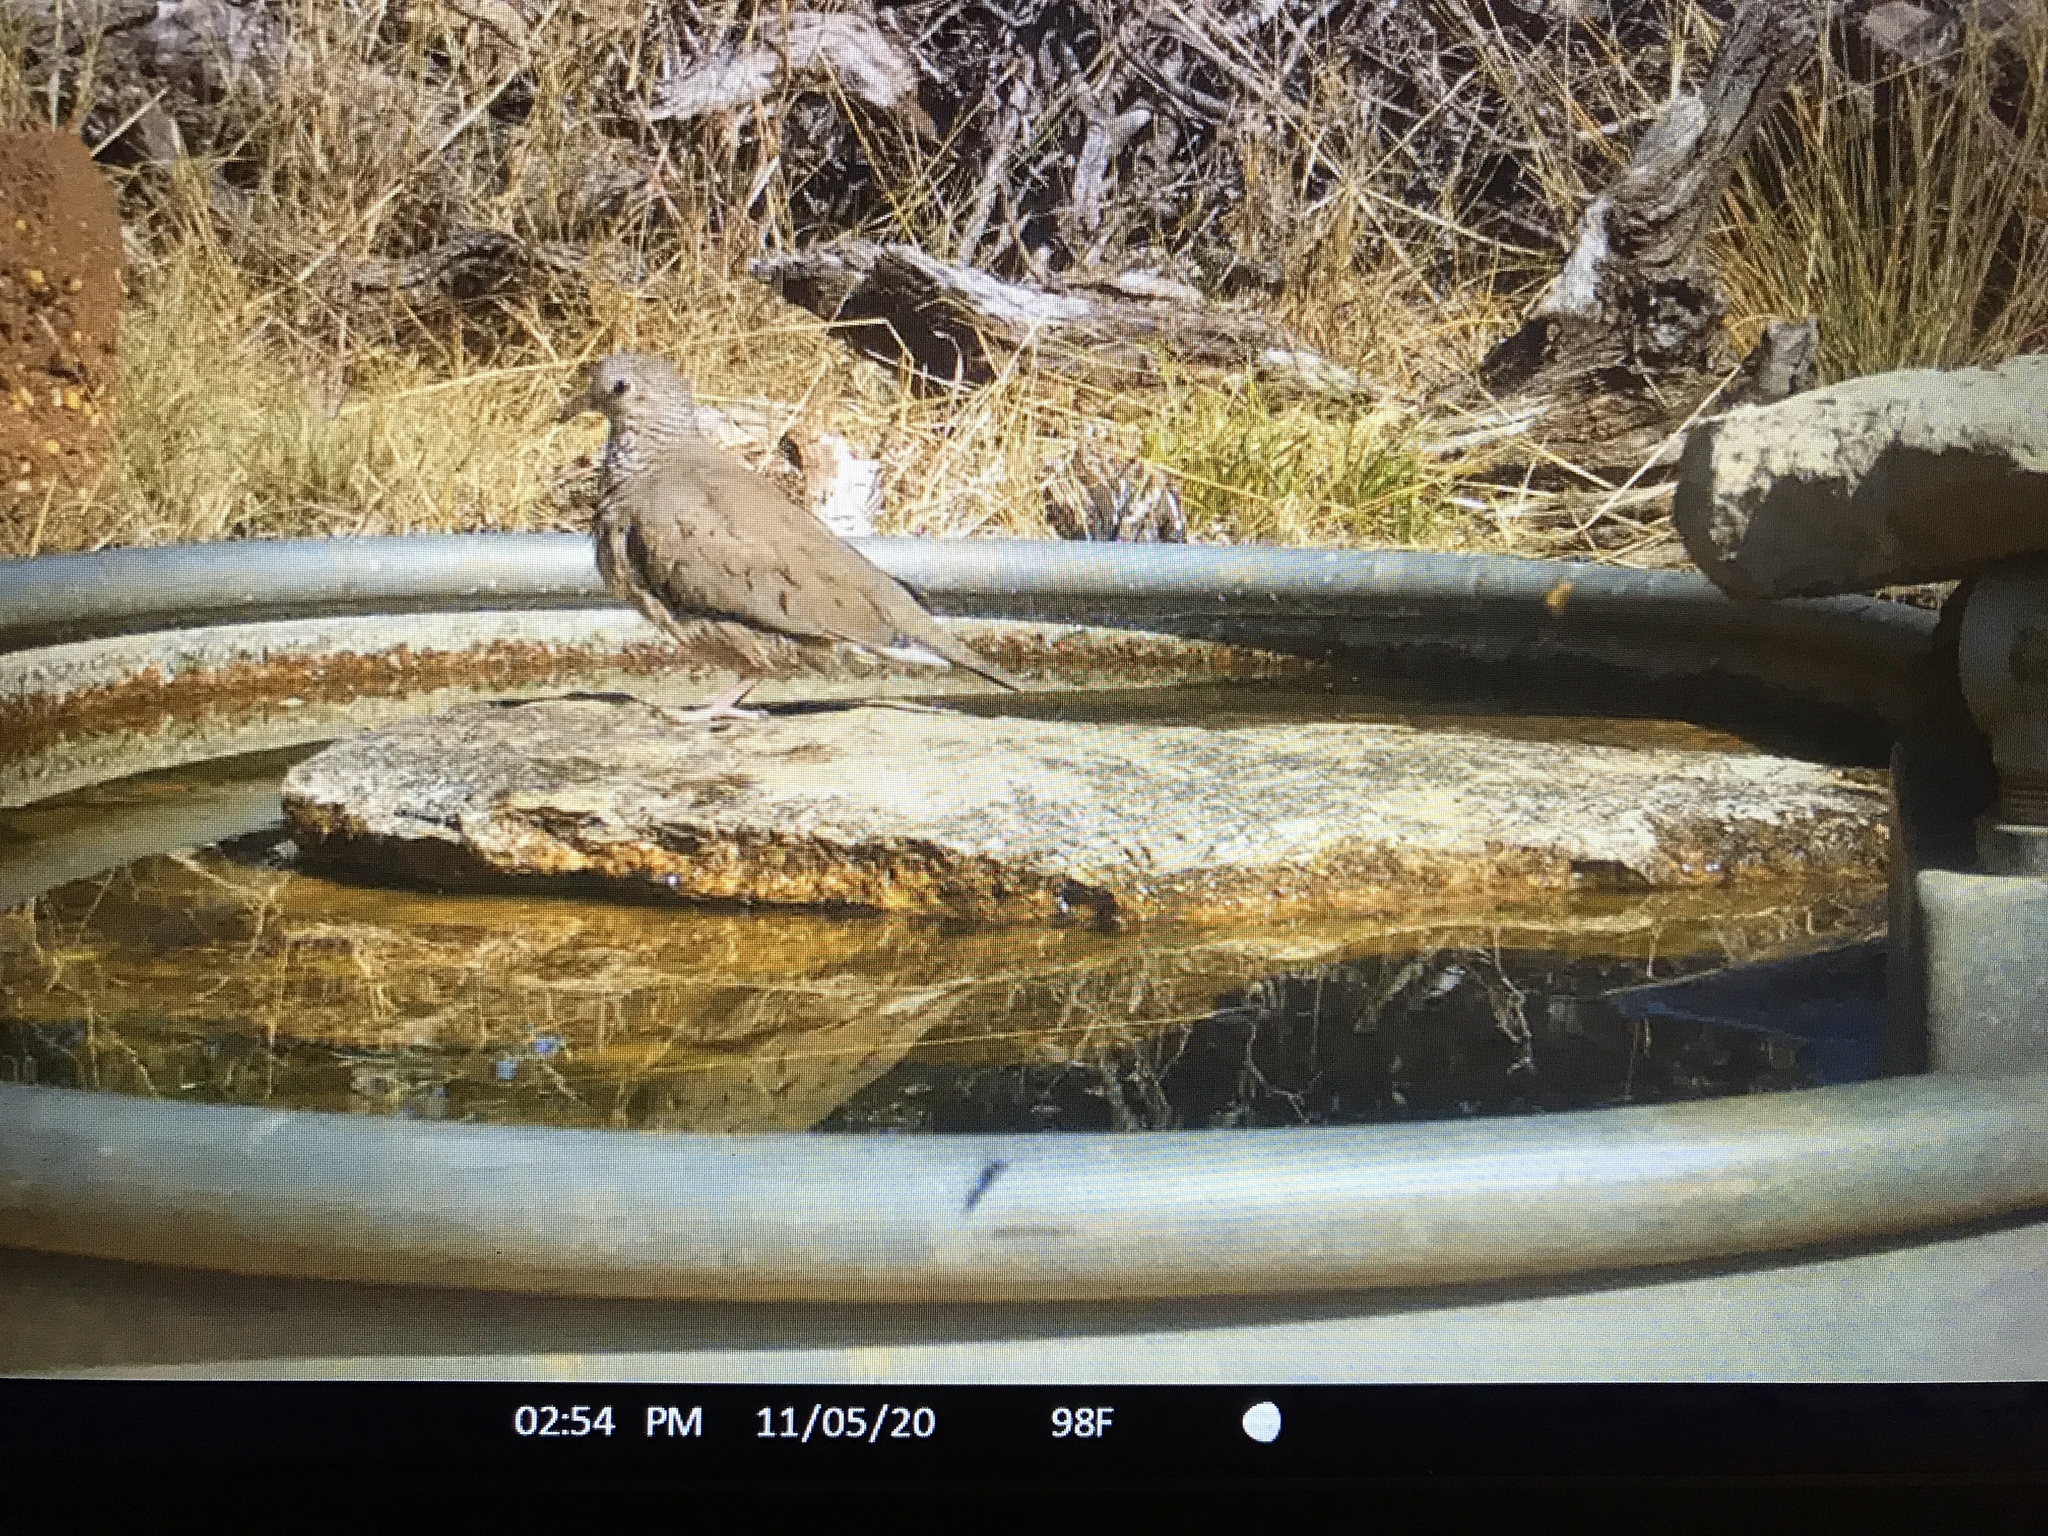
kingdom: Animalia
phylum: Chordata
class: Aves
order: Columbiformes
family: Columbidae
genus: Columbina
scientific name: Columbina passerina
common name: Common ground-dove
